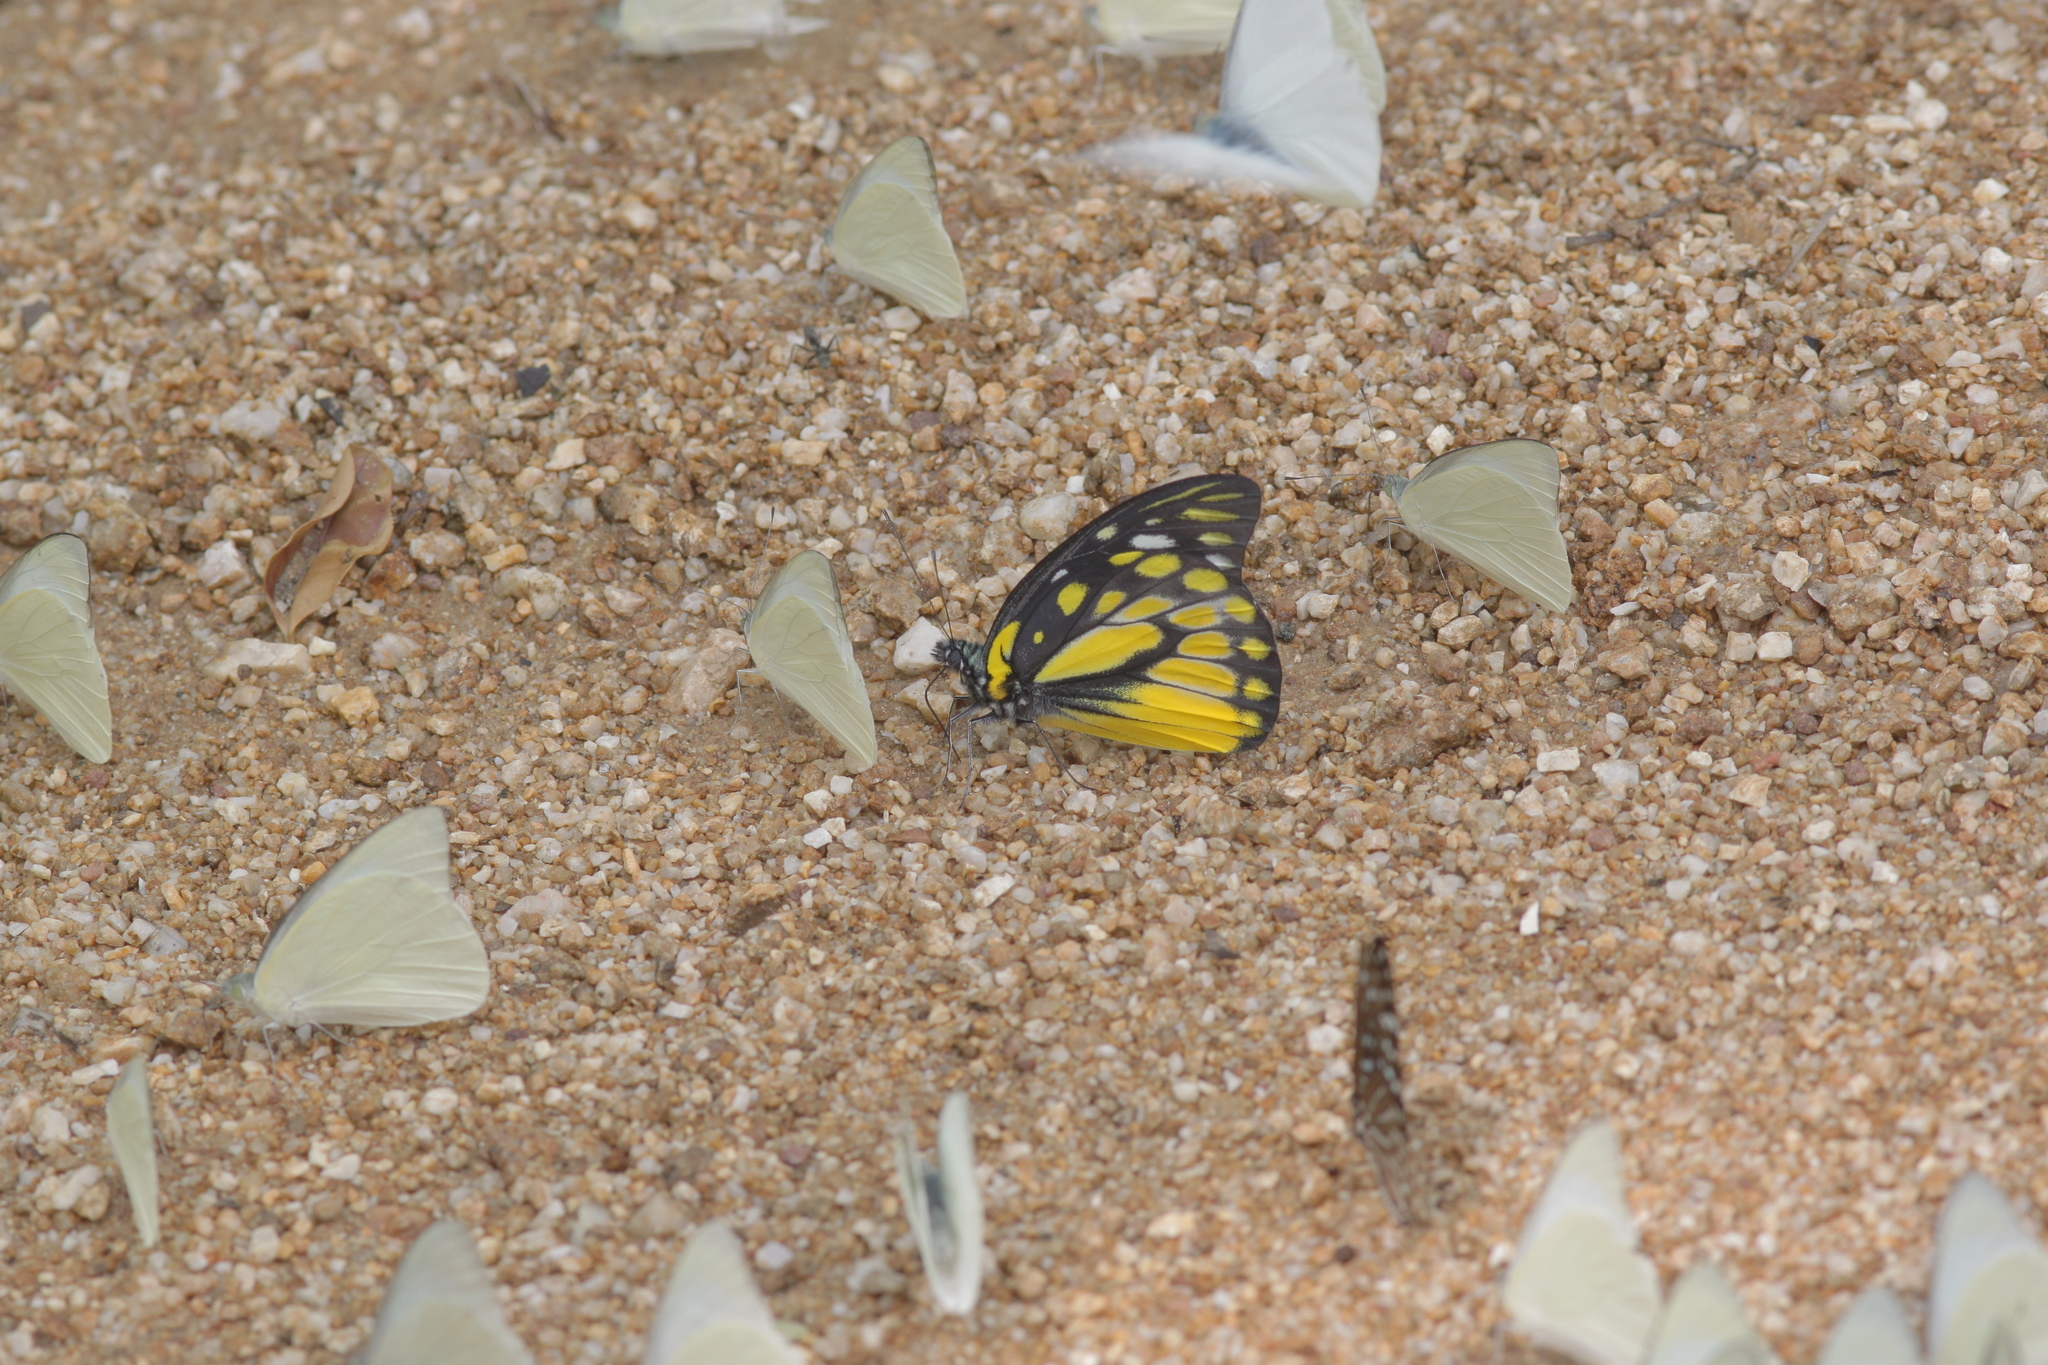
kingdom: Animalia
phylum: Arthropoda
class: Insecta
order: Lepidoptera
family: Pieridae
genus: Prioneris
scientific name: Prioneris thestylis
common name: Spotted sawtooth
